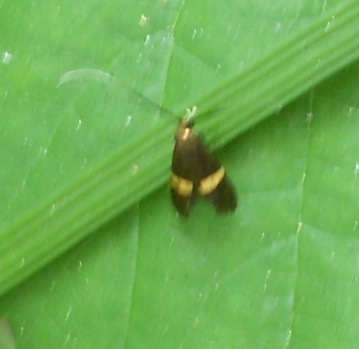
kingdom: Animalia
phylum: Arthropoda
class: Insecta
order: Lepidoptera
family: Adelidae
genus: Nemophora
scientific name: Nemophora degeerella
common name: Yellow-barred long-horn
